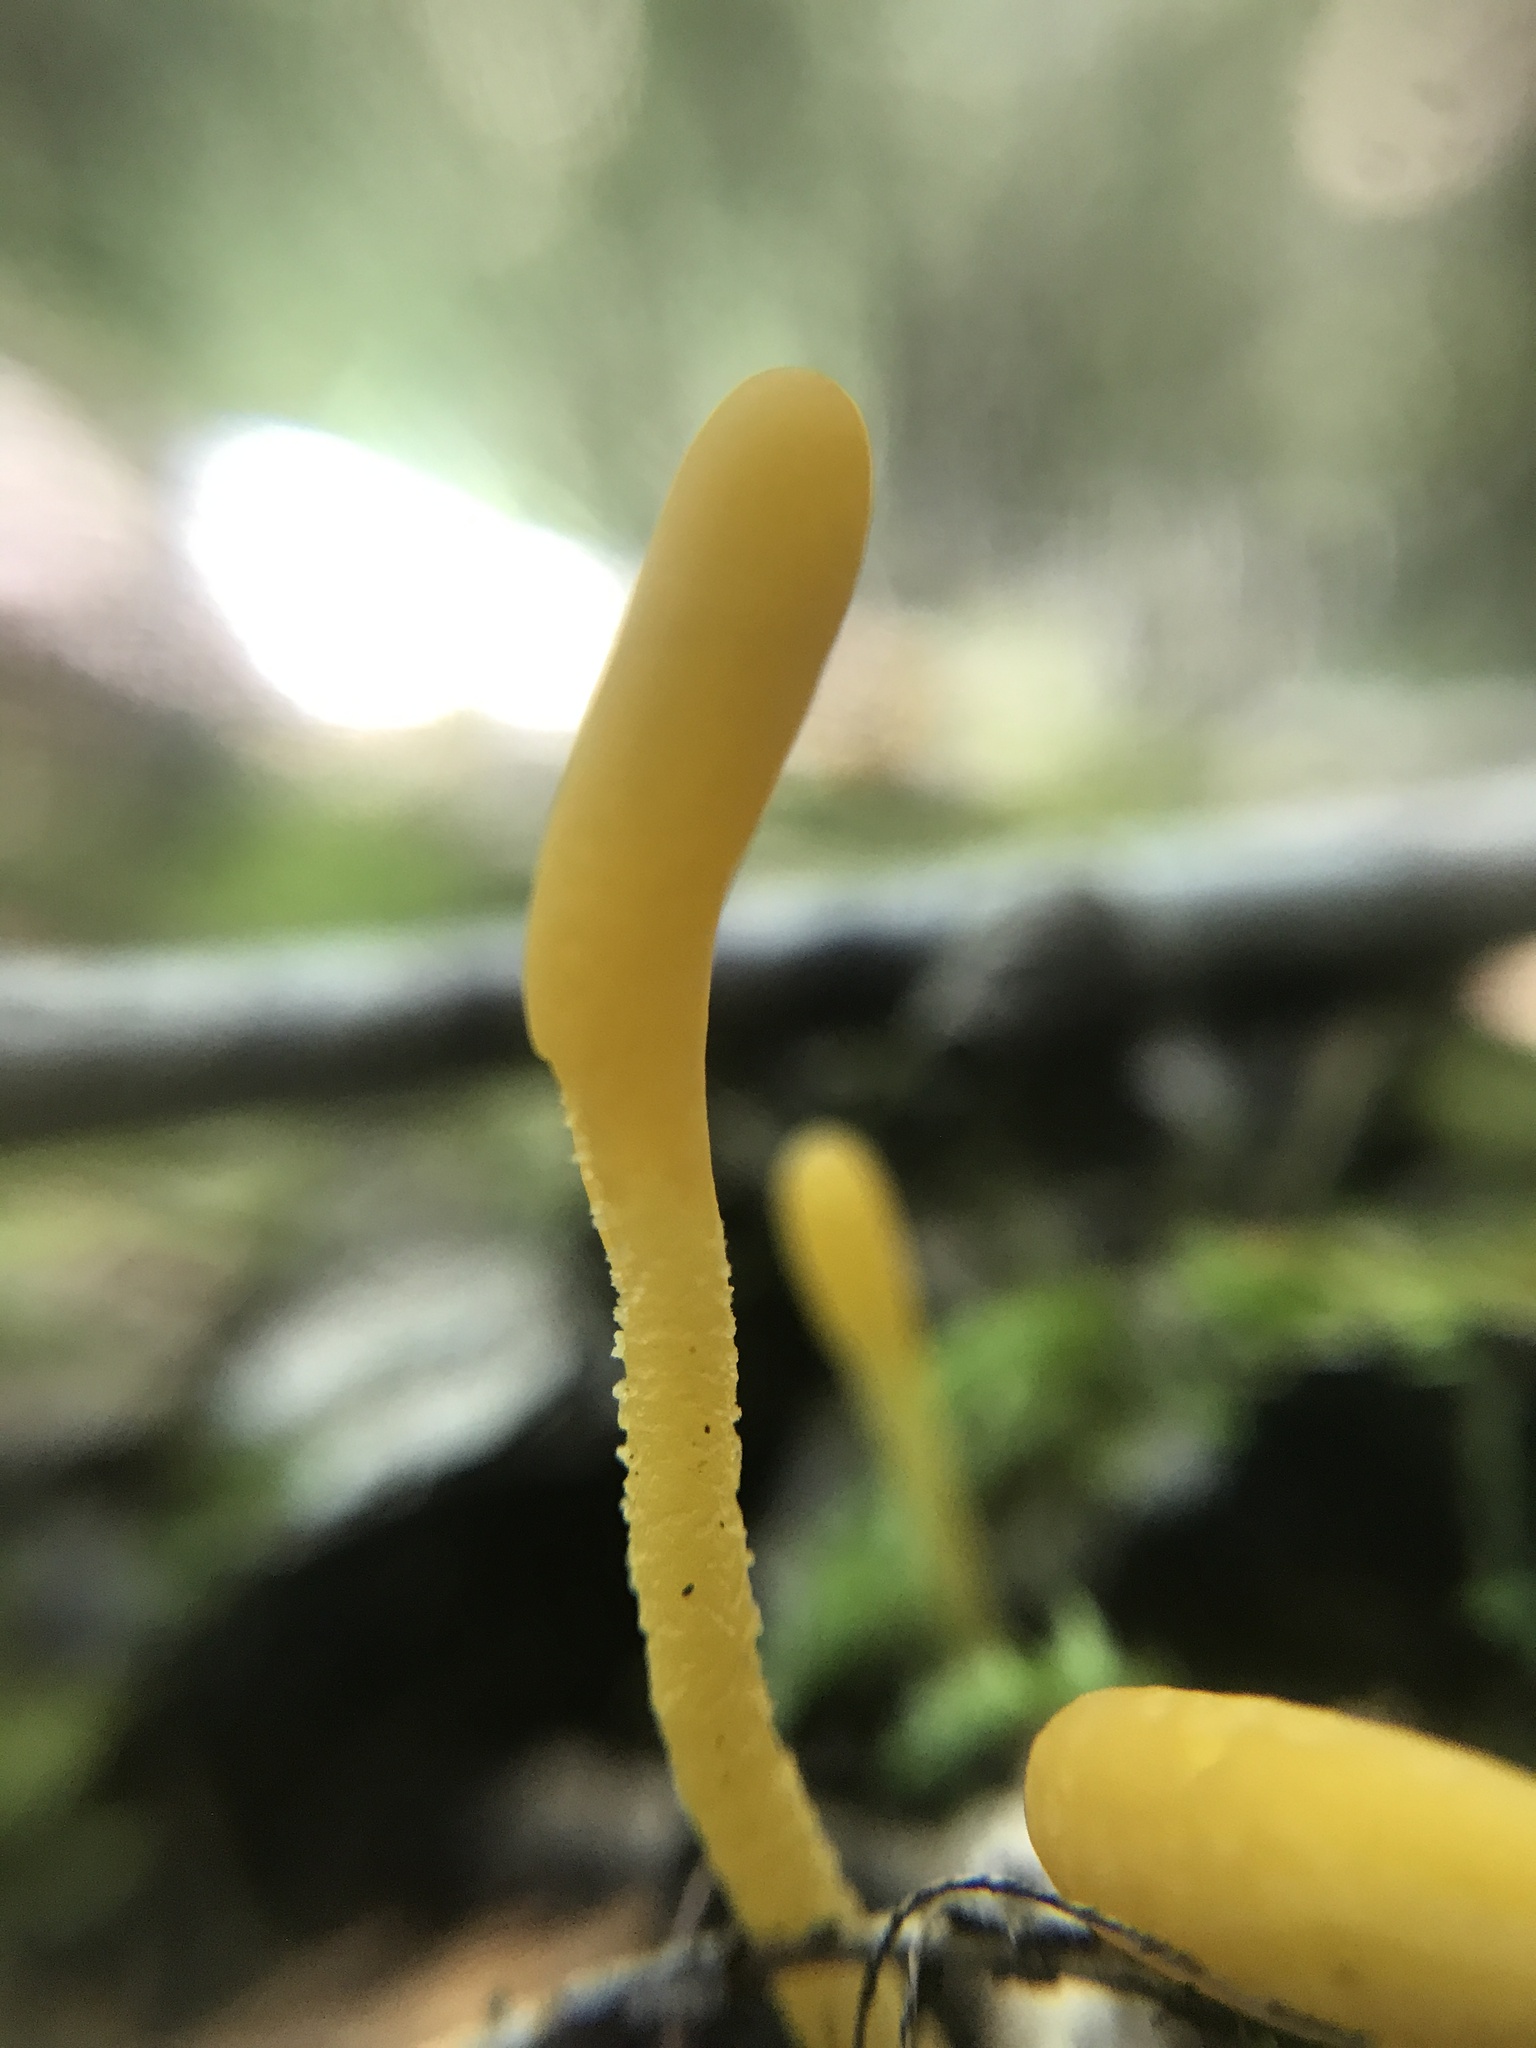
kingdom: Fungi
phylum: Ascomycota
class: Leotiomycetes
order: Leotiales
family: Leotiaceae
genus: Microglossum
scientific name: Microglossum rufum
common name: Orange earthtongue
